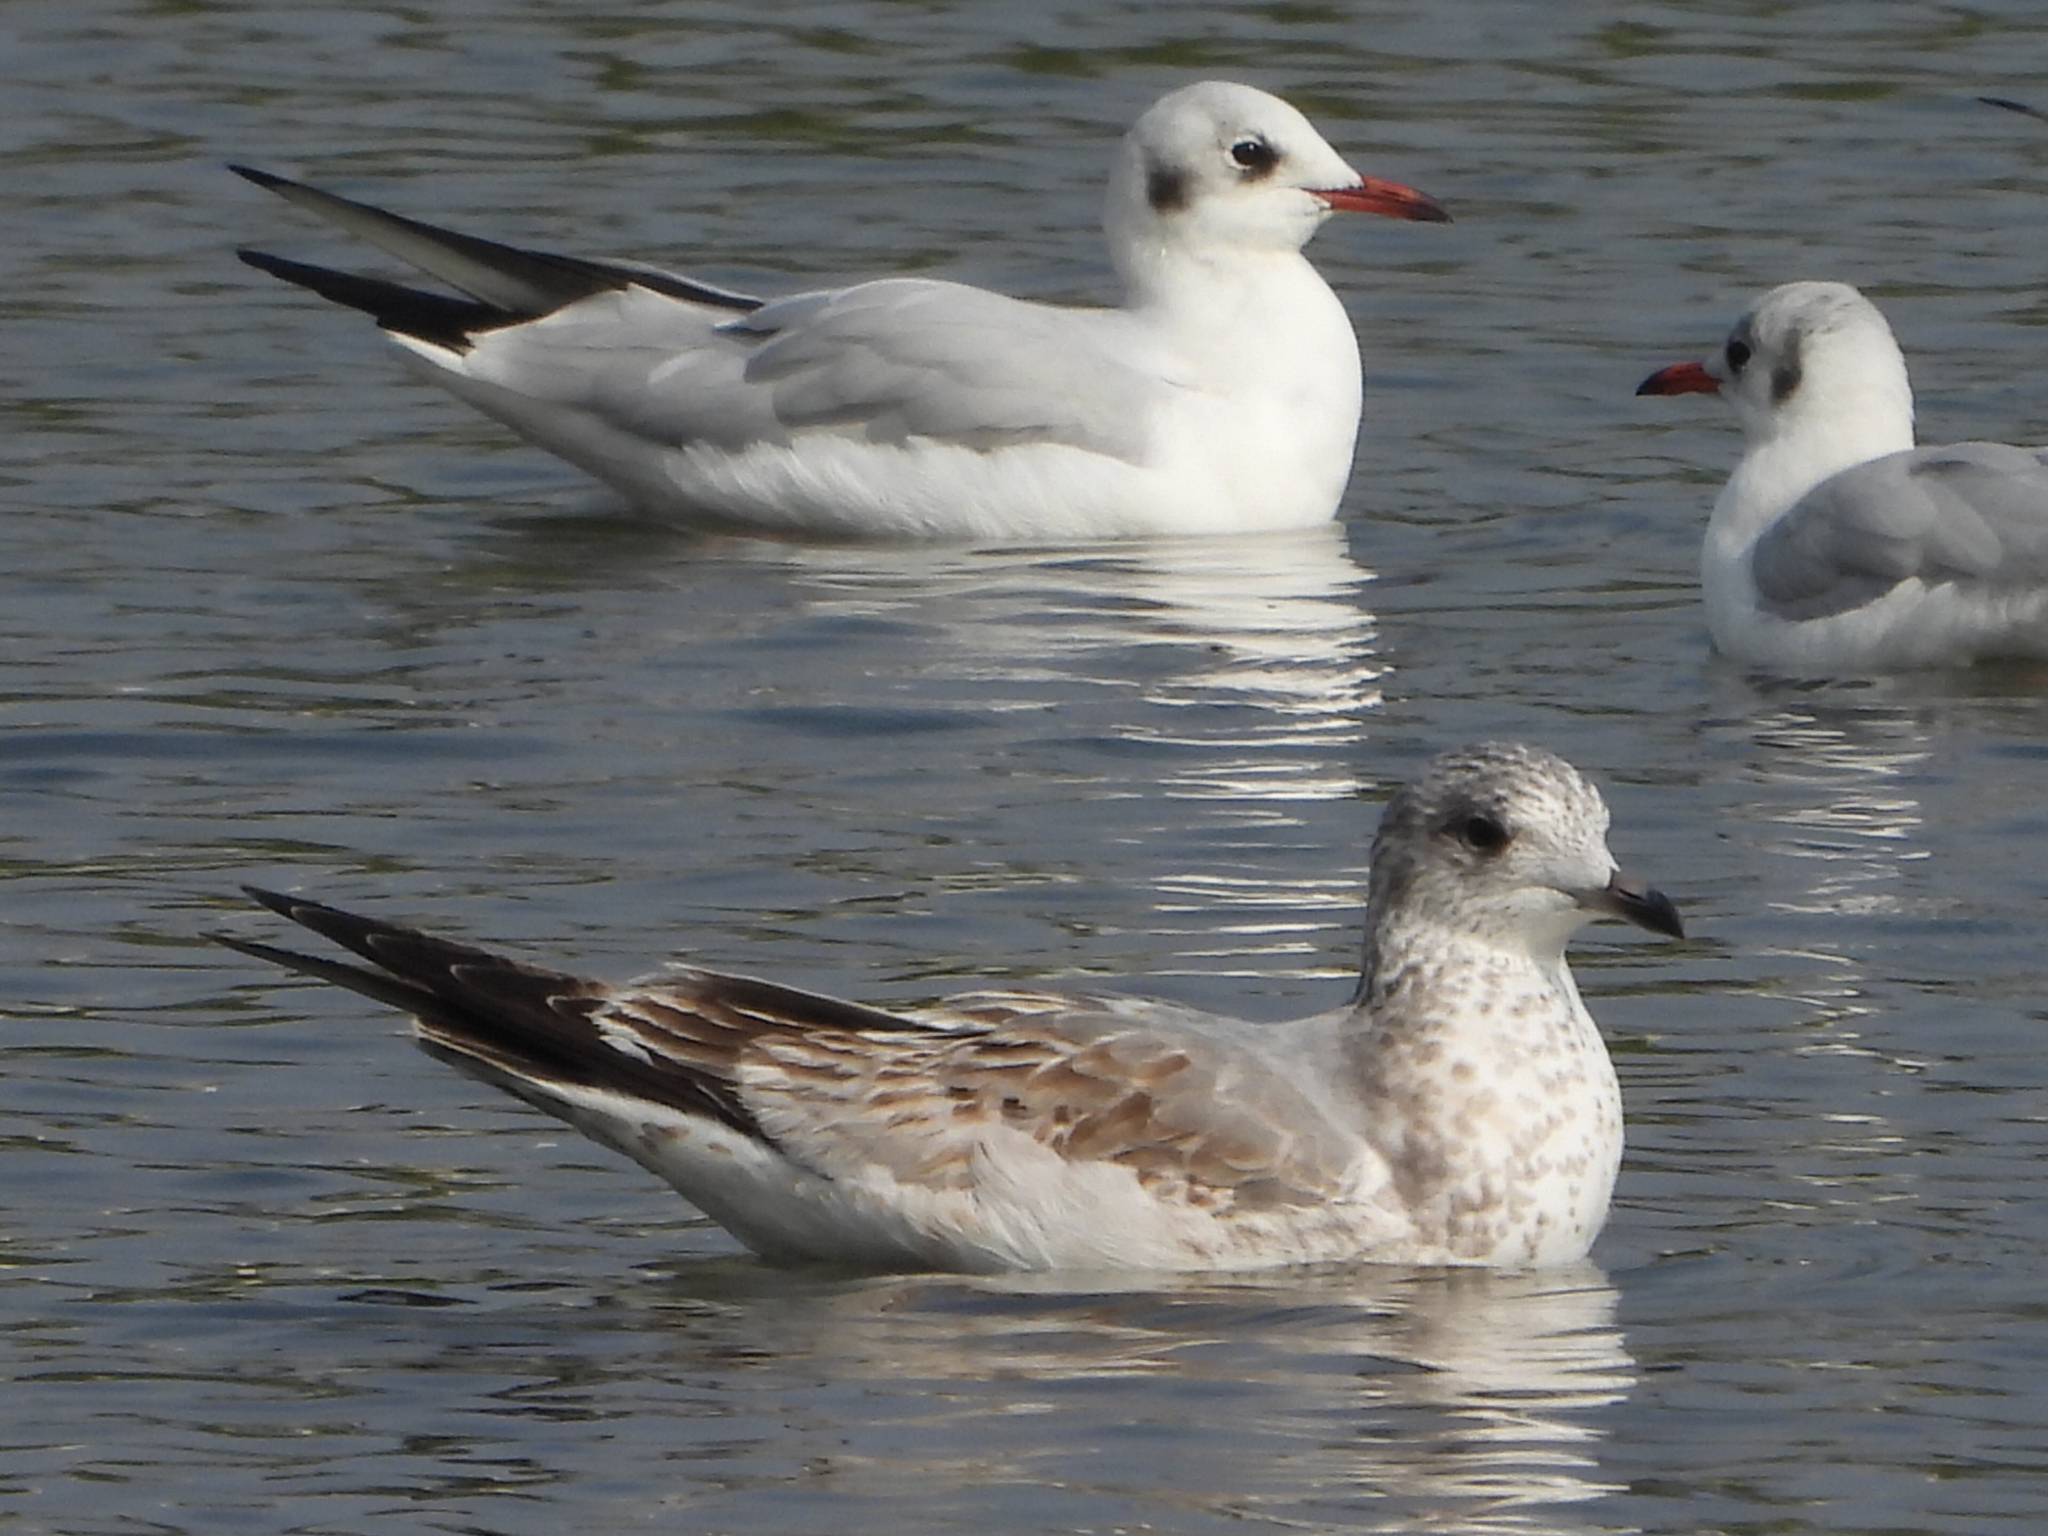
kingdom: Animalia
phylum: Chordata
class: Aves
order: Charadriiformes
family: Laridae
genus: Larus
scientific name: Larus canus
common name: Mew gull
